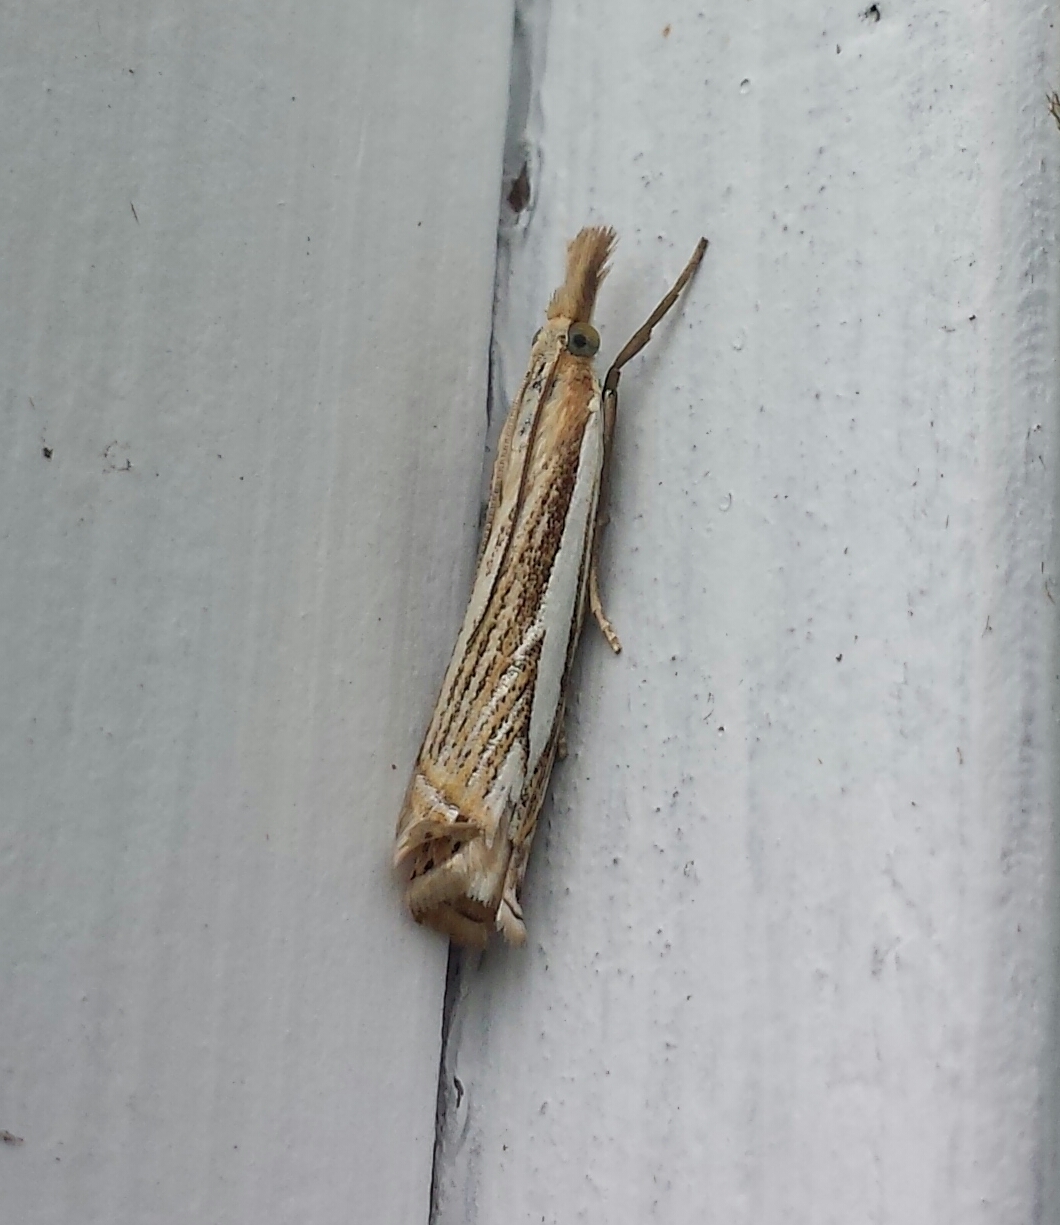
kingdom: Animalia
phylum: Arthropoda
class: Insecta
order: Lepidoptera
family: Crambidae
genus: Crambus
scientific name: Crambus saltuellus
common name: Pasture grass-veneer
